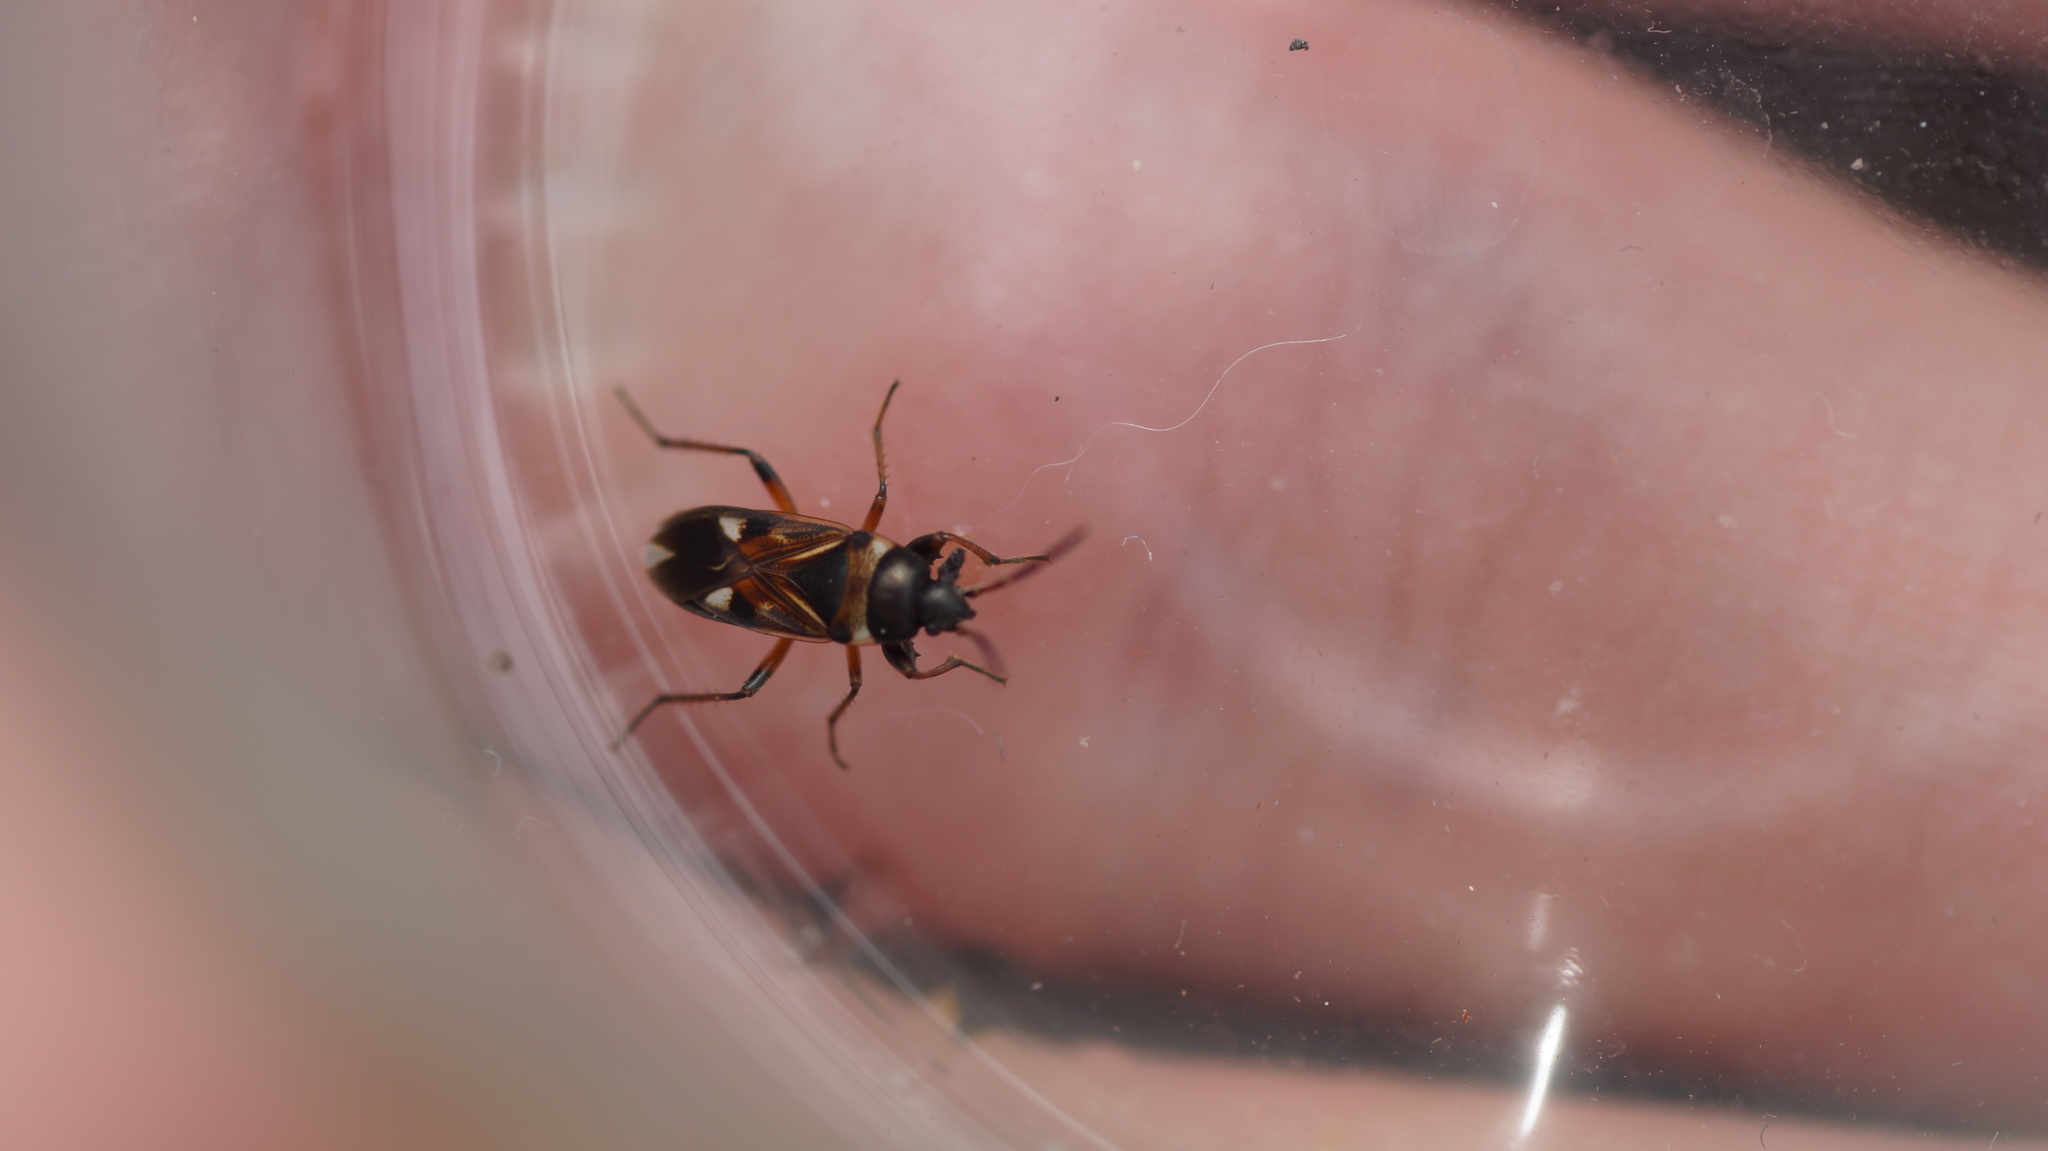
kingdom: Animalia
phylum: Arthropoda
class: Insecta
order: Hemiptera
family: Rhyparochromidae
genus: Raglius
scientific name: Raglius alboacuminatus
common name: Dirt-colored seed bug
